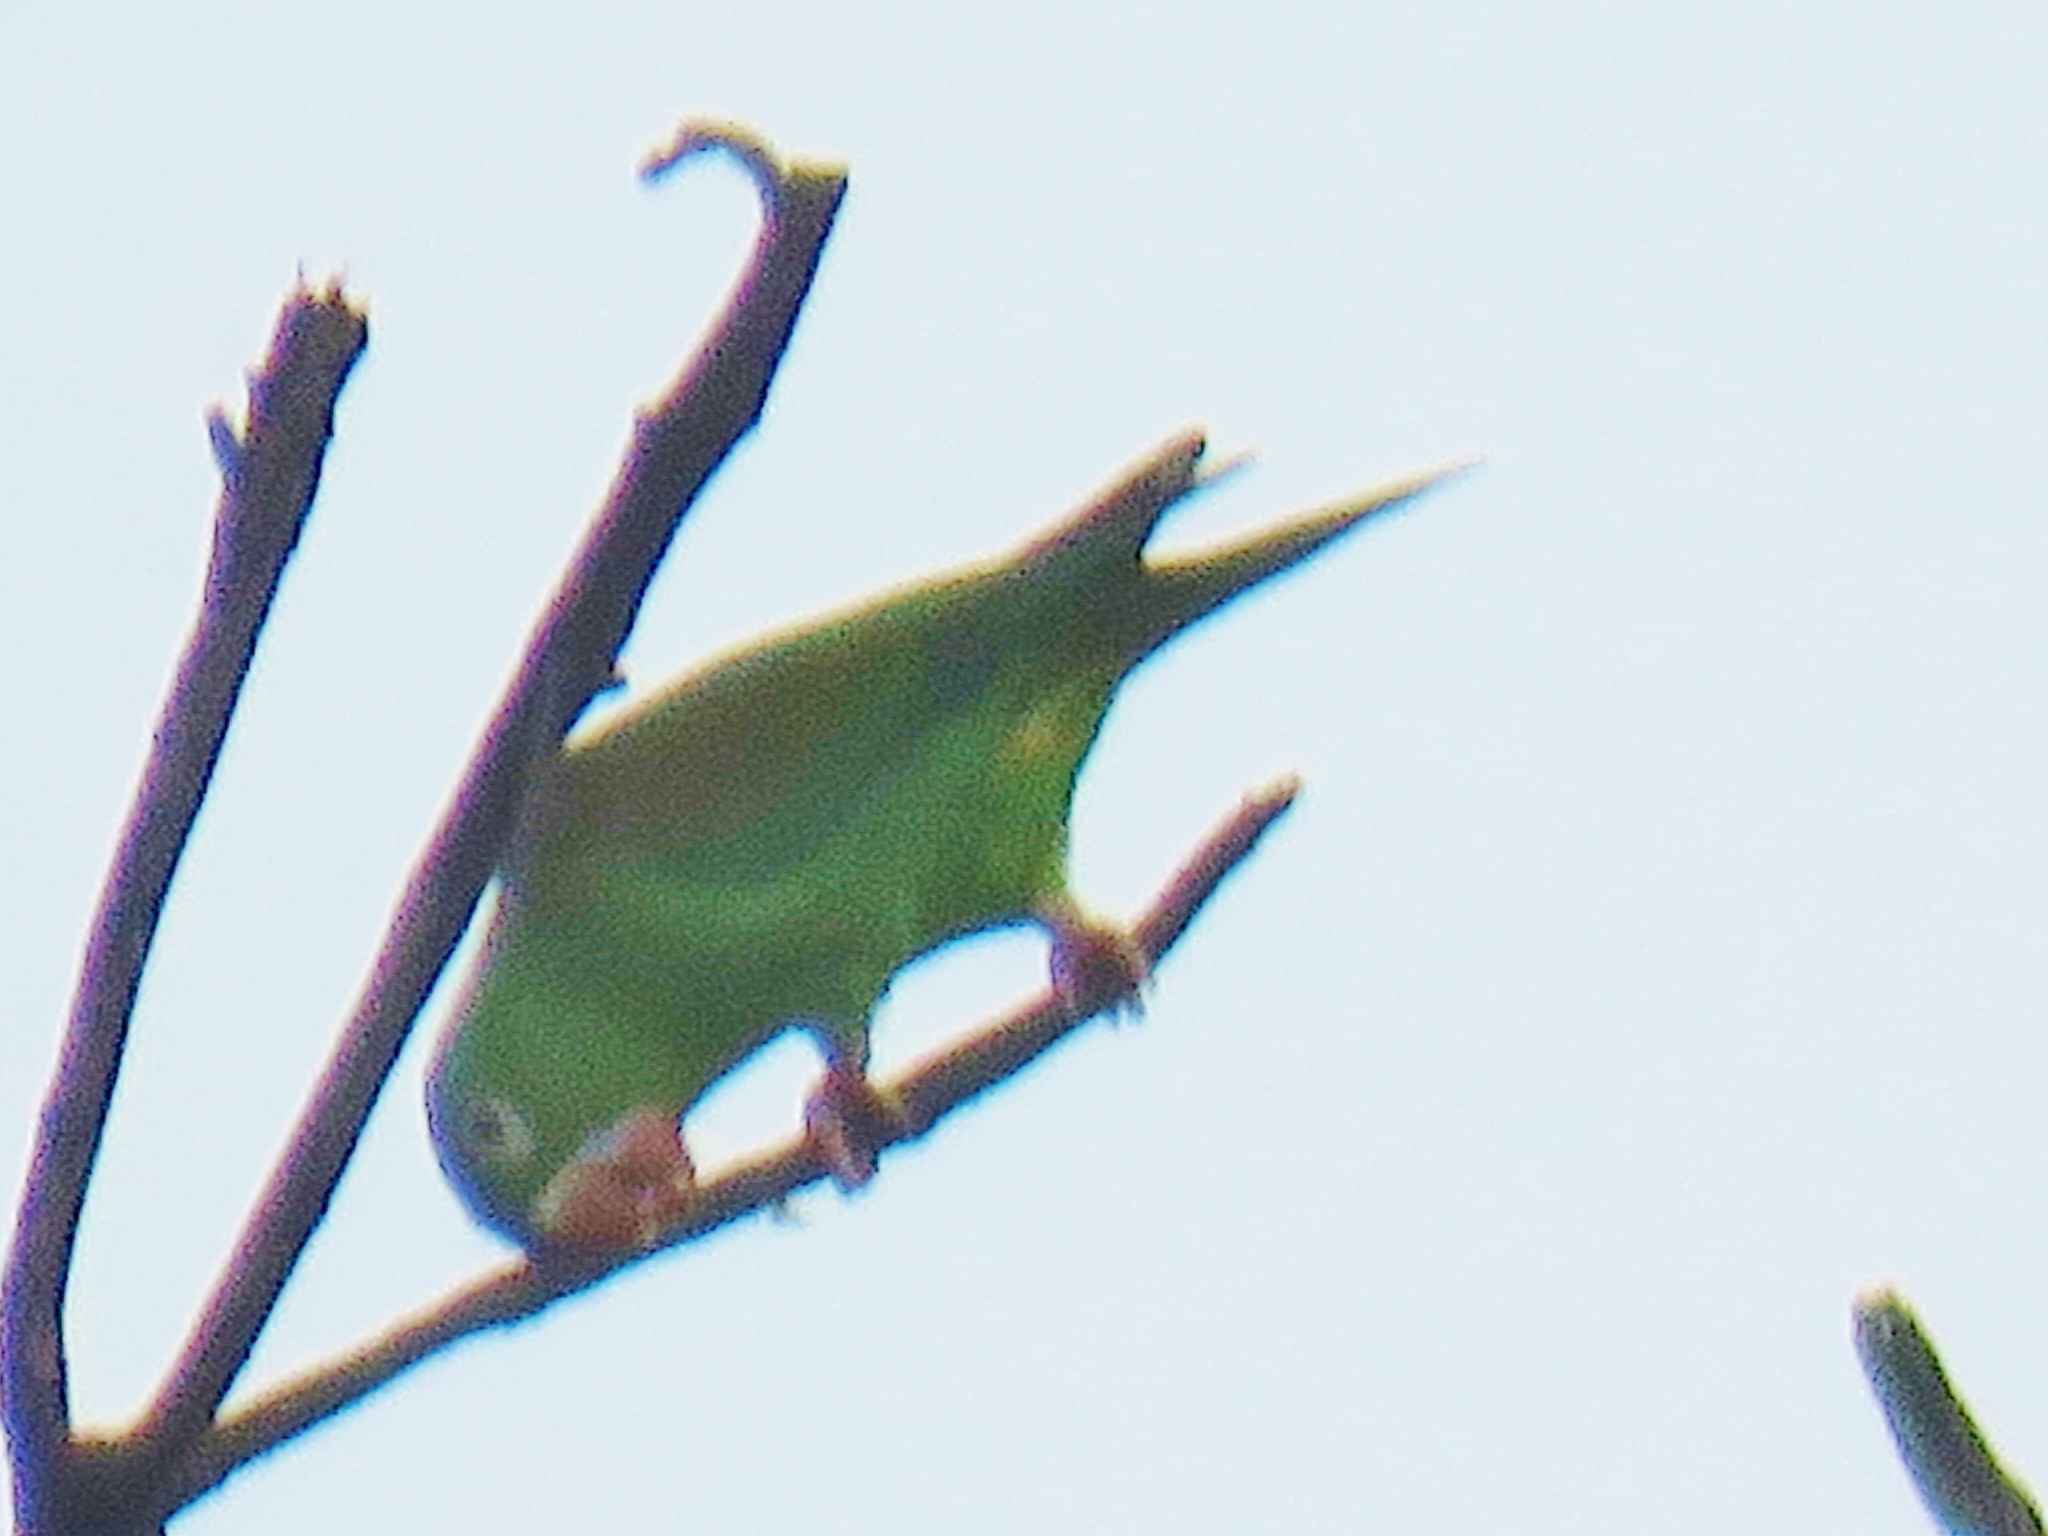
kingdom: Animalia
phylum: Chordata
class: Aves
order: Psittaciformes
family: Psittacidae
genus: Brotogeris
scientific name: Brotogeris jugularis
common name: Orange-chinned parakeet
